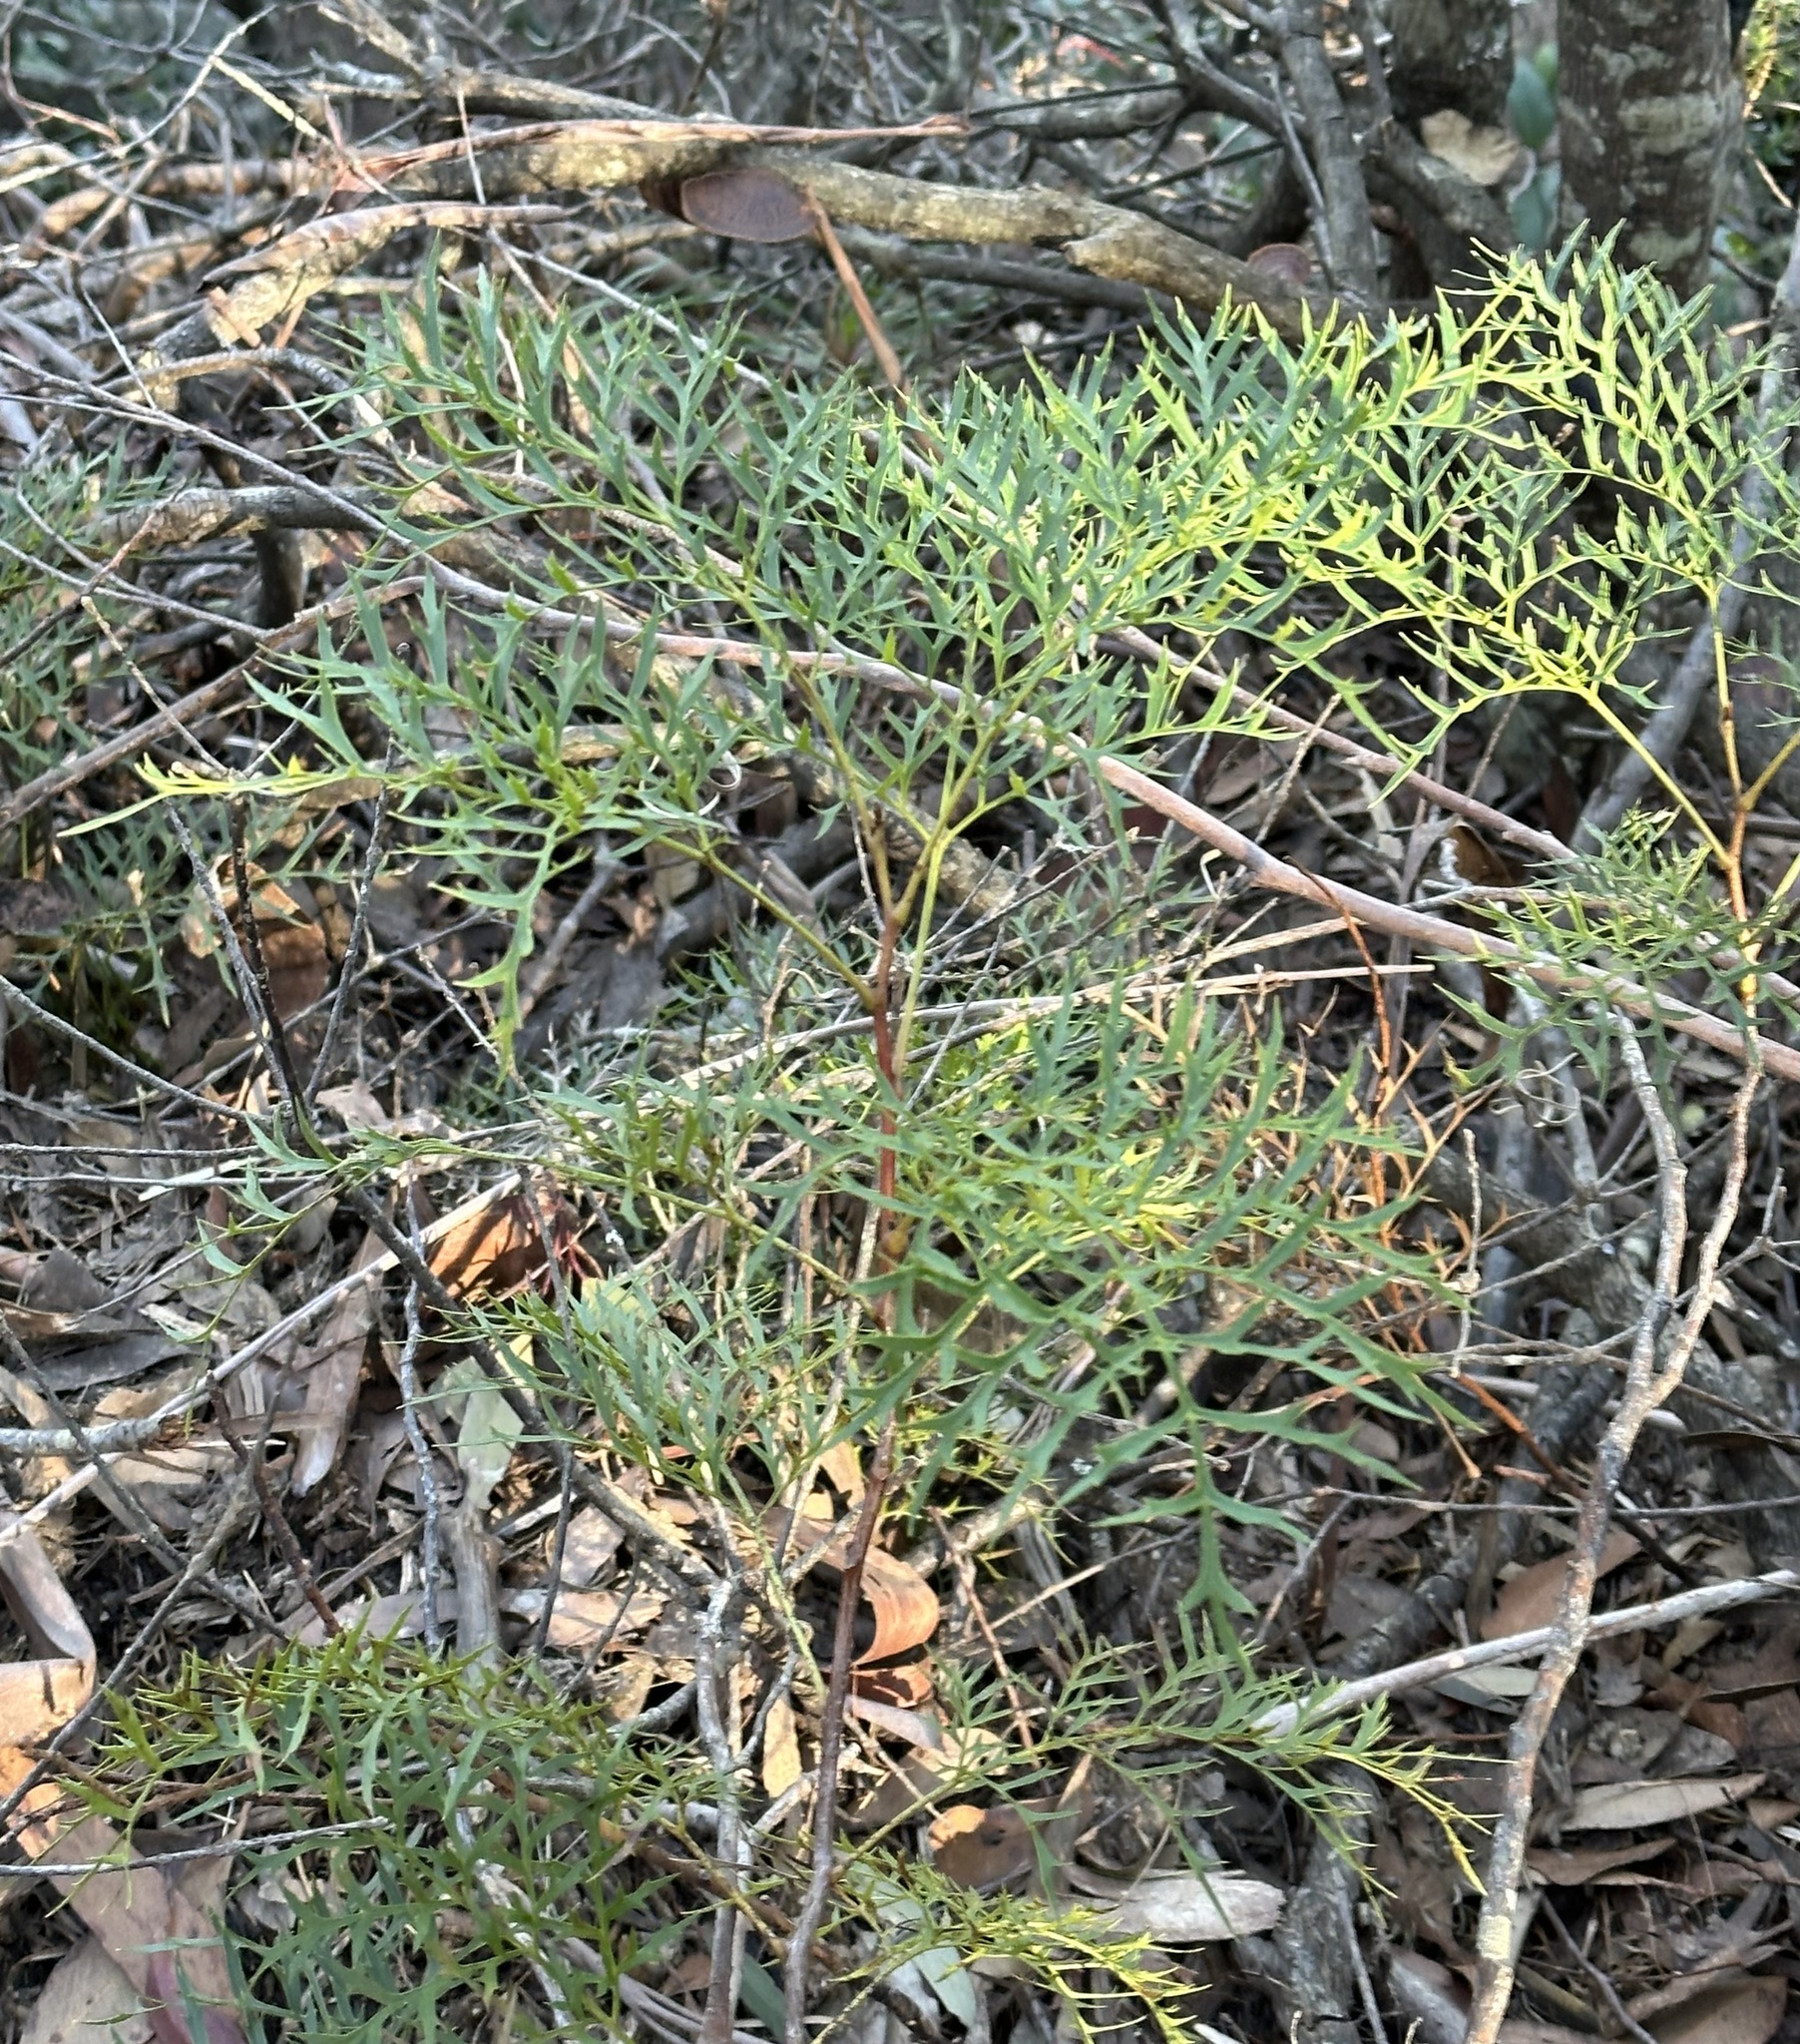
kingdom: Plantae
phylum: Tracheophyta
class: Magnoliopsida
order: Proteales
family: Proteaceae
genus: Lomatia
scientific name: Lomatia silaifolia
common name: Crinklebush
